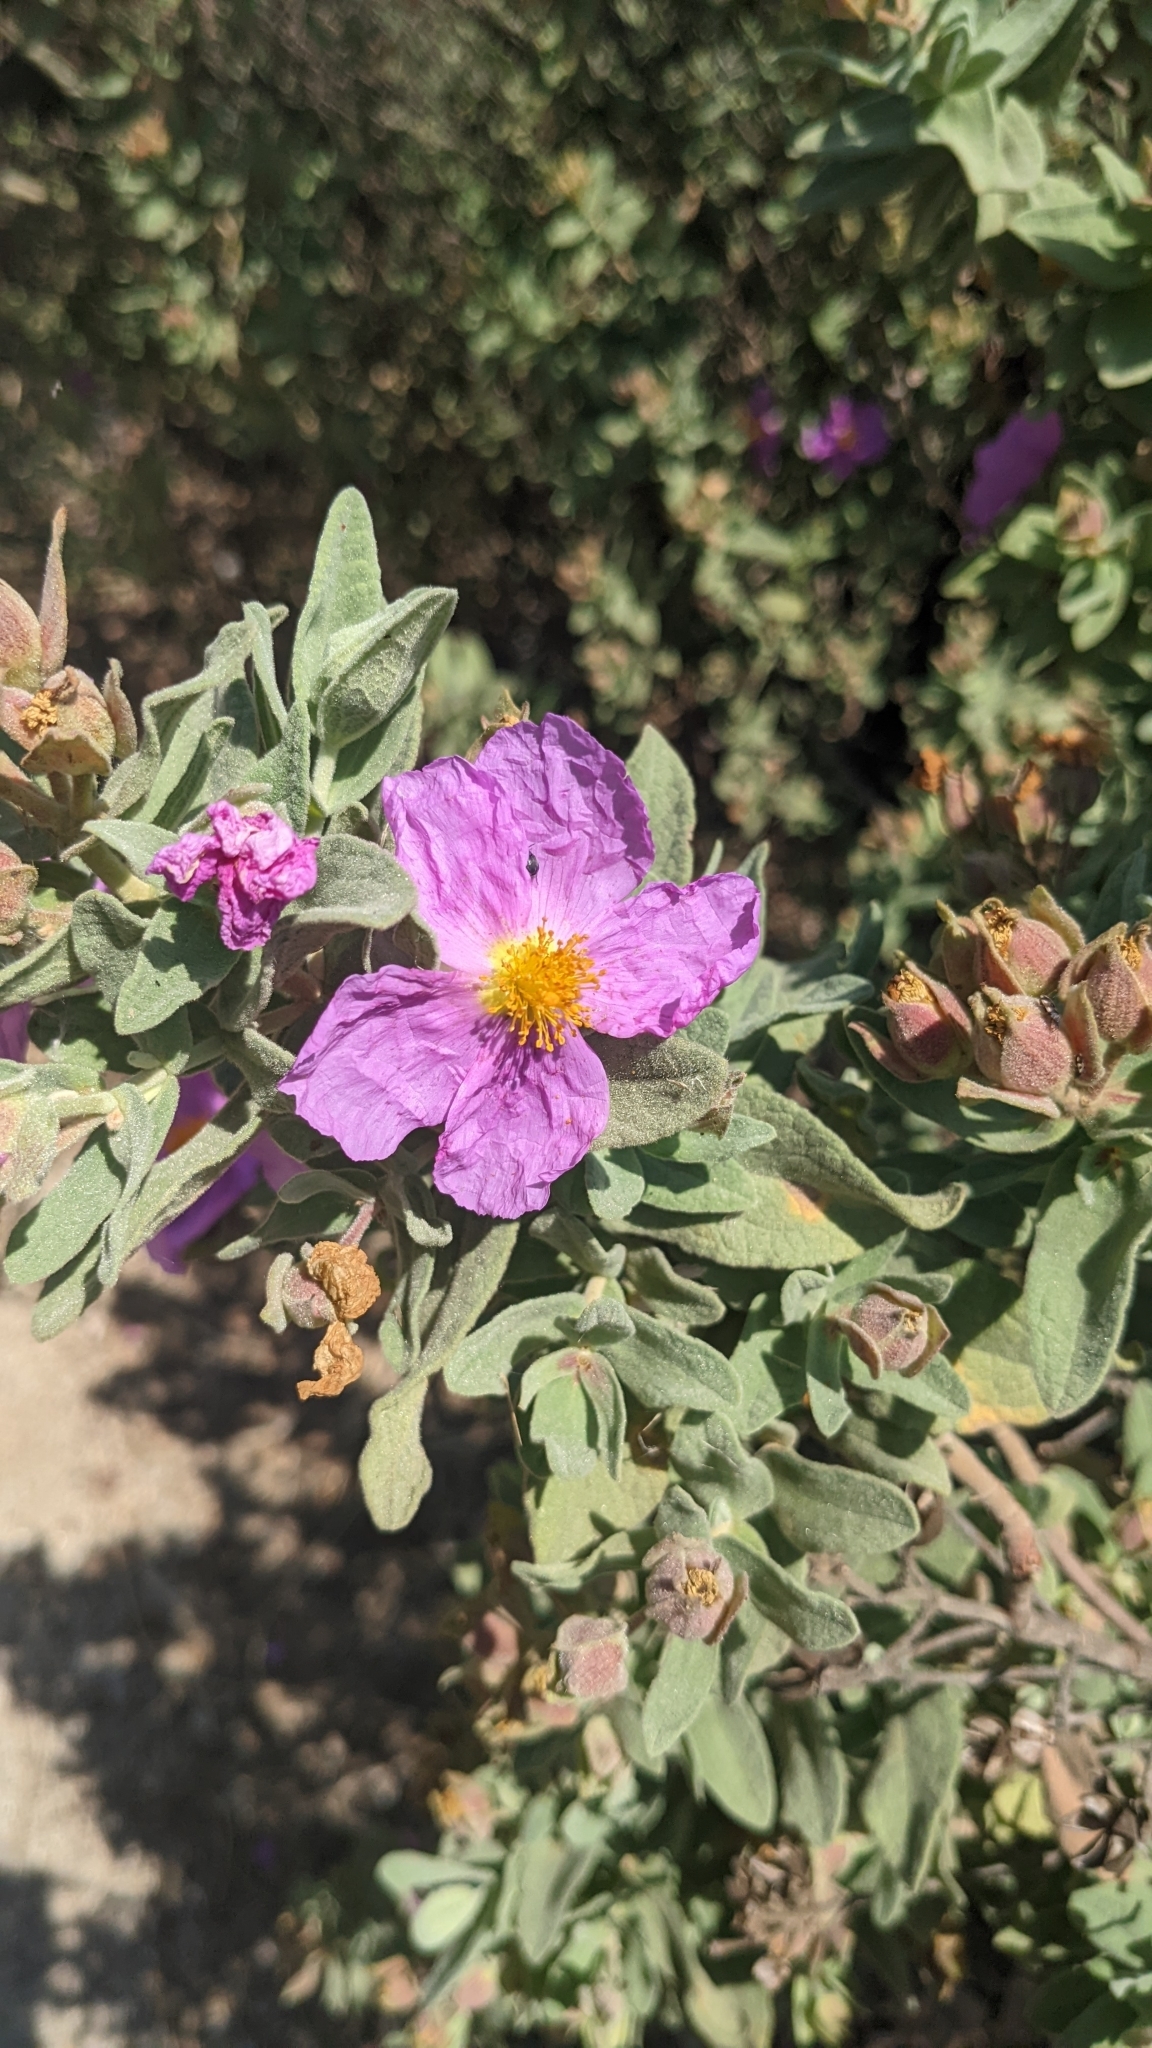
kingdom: Plantae
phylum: Tracheophyta
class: Magnoliopsida
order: Malvales
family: Cistaceae
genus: Cistus
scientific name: Cistus albidus
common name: White-leaf rock-rose
